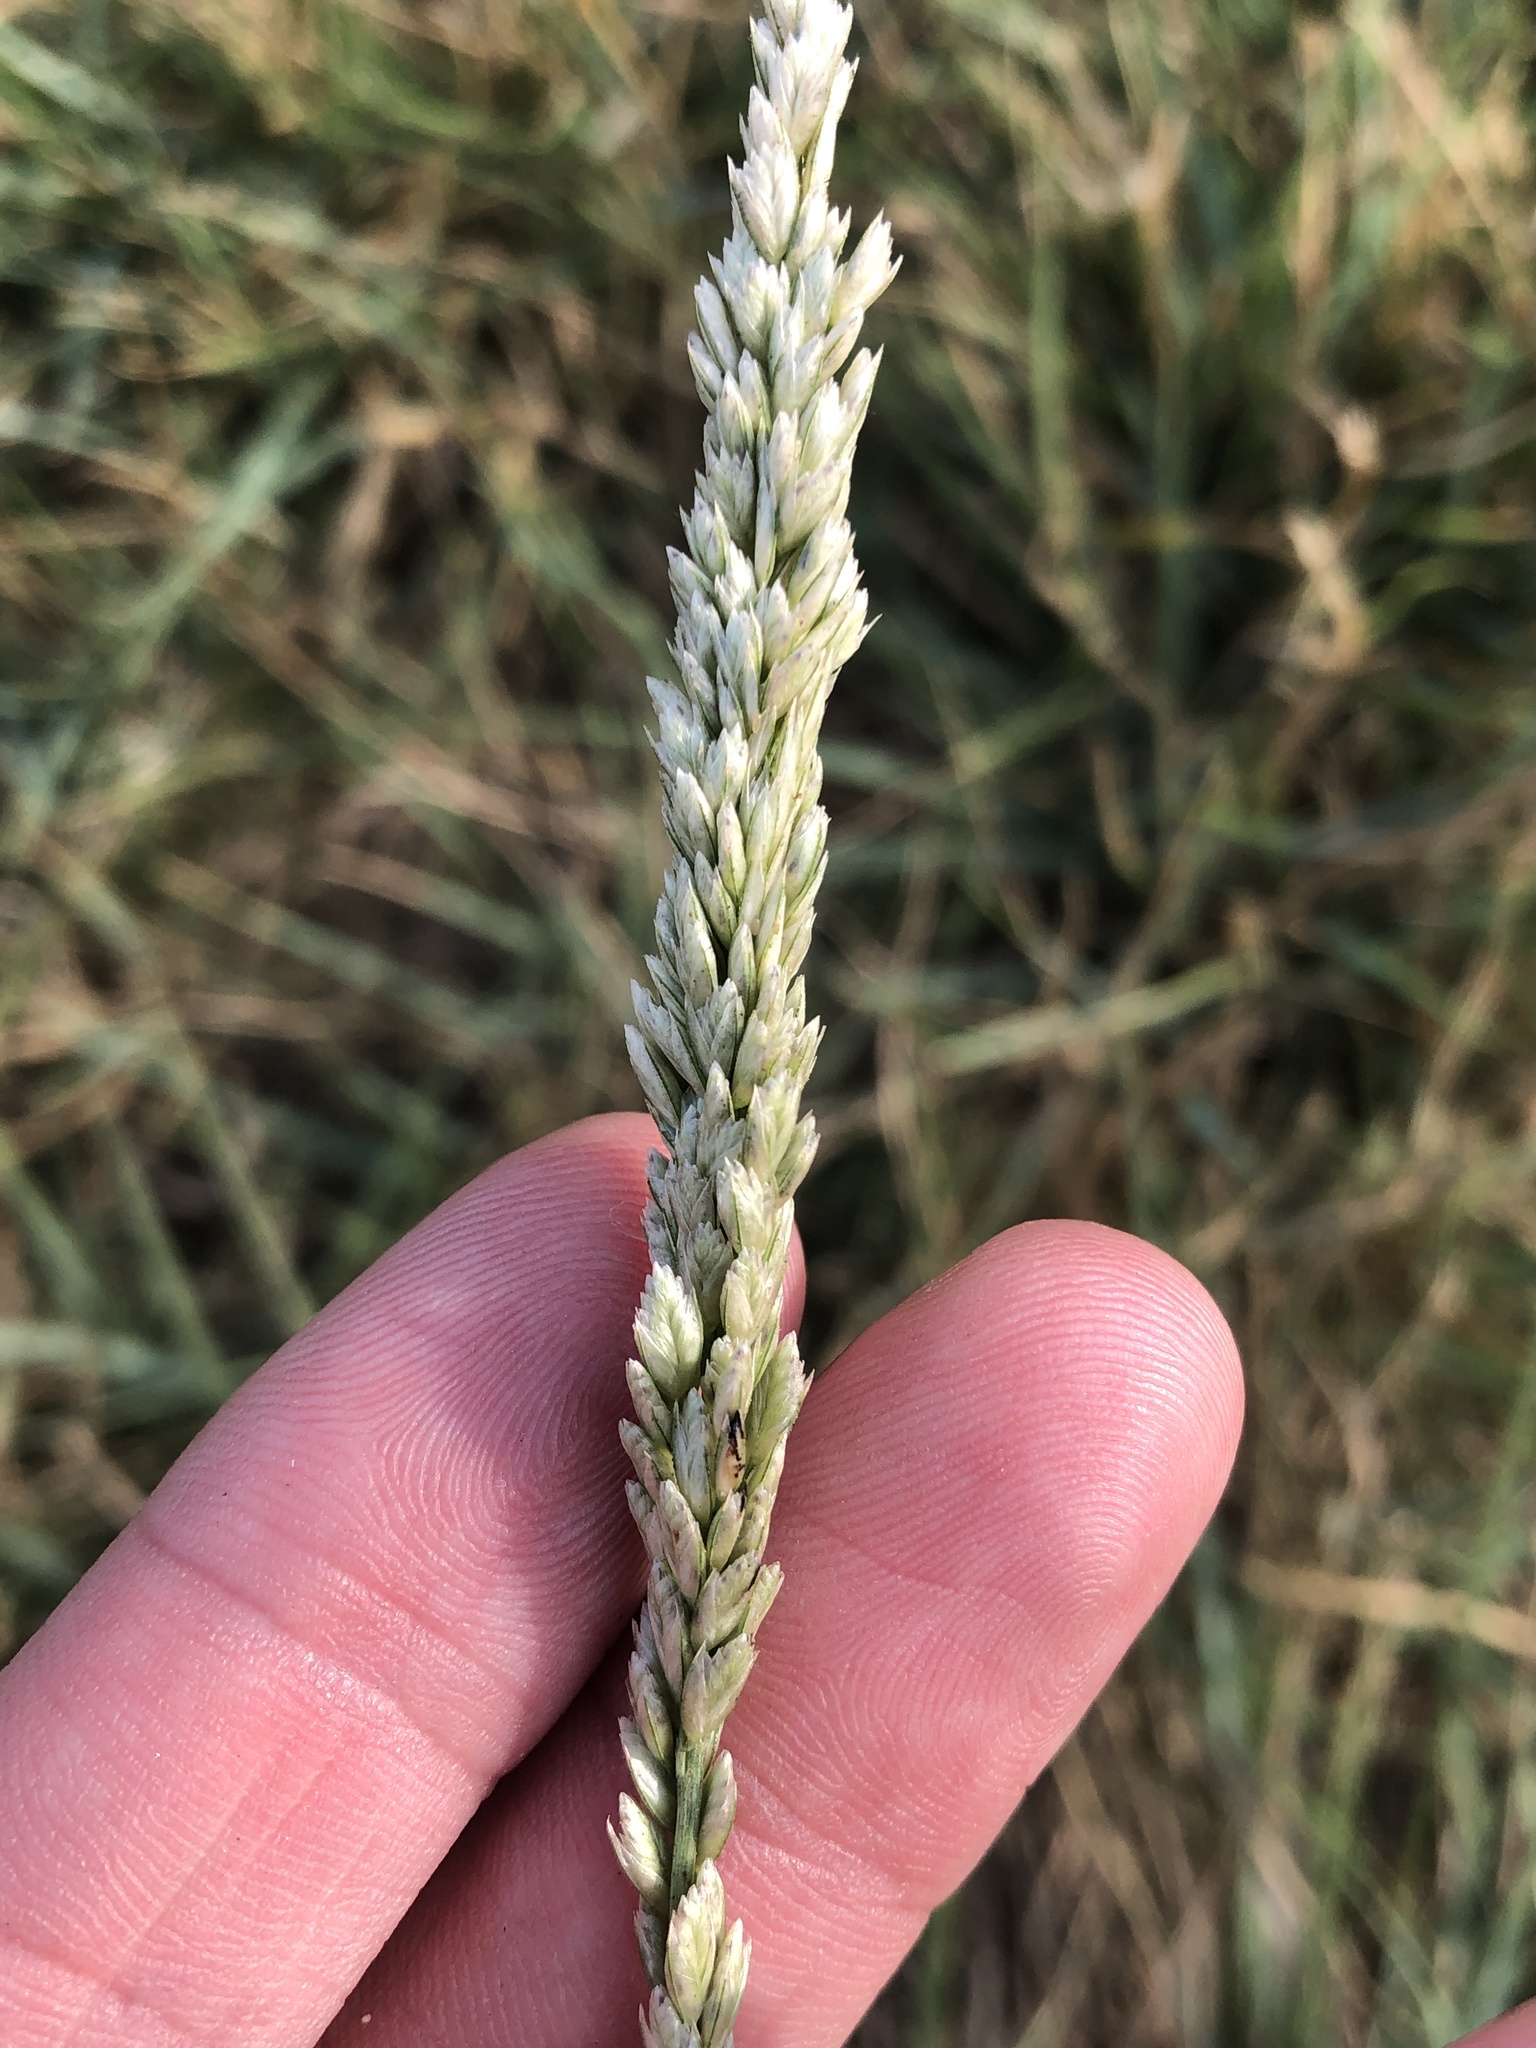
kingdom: Plantae
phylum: Tracheophyta
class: Liliopsida
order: Poales
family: Poaceae
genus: Tridens
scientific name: Tridens albescens
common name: White tridens
